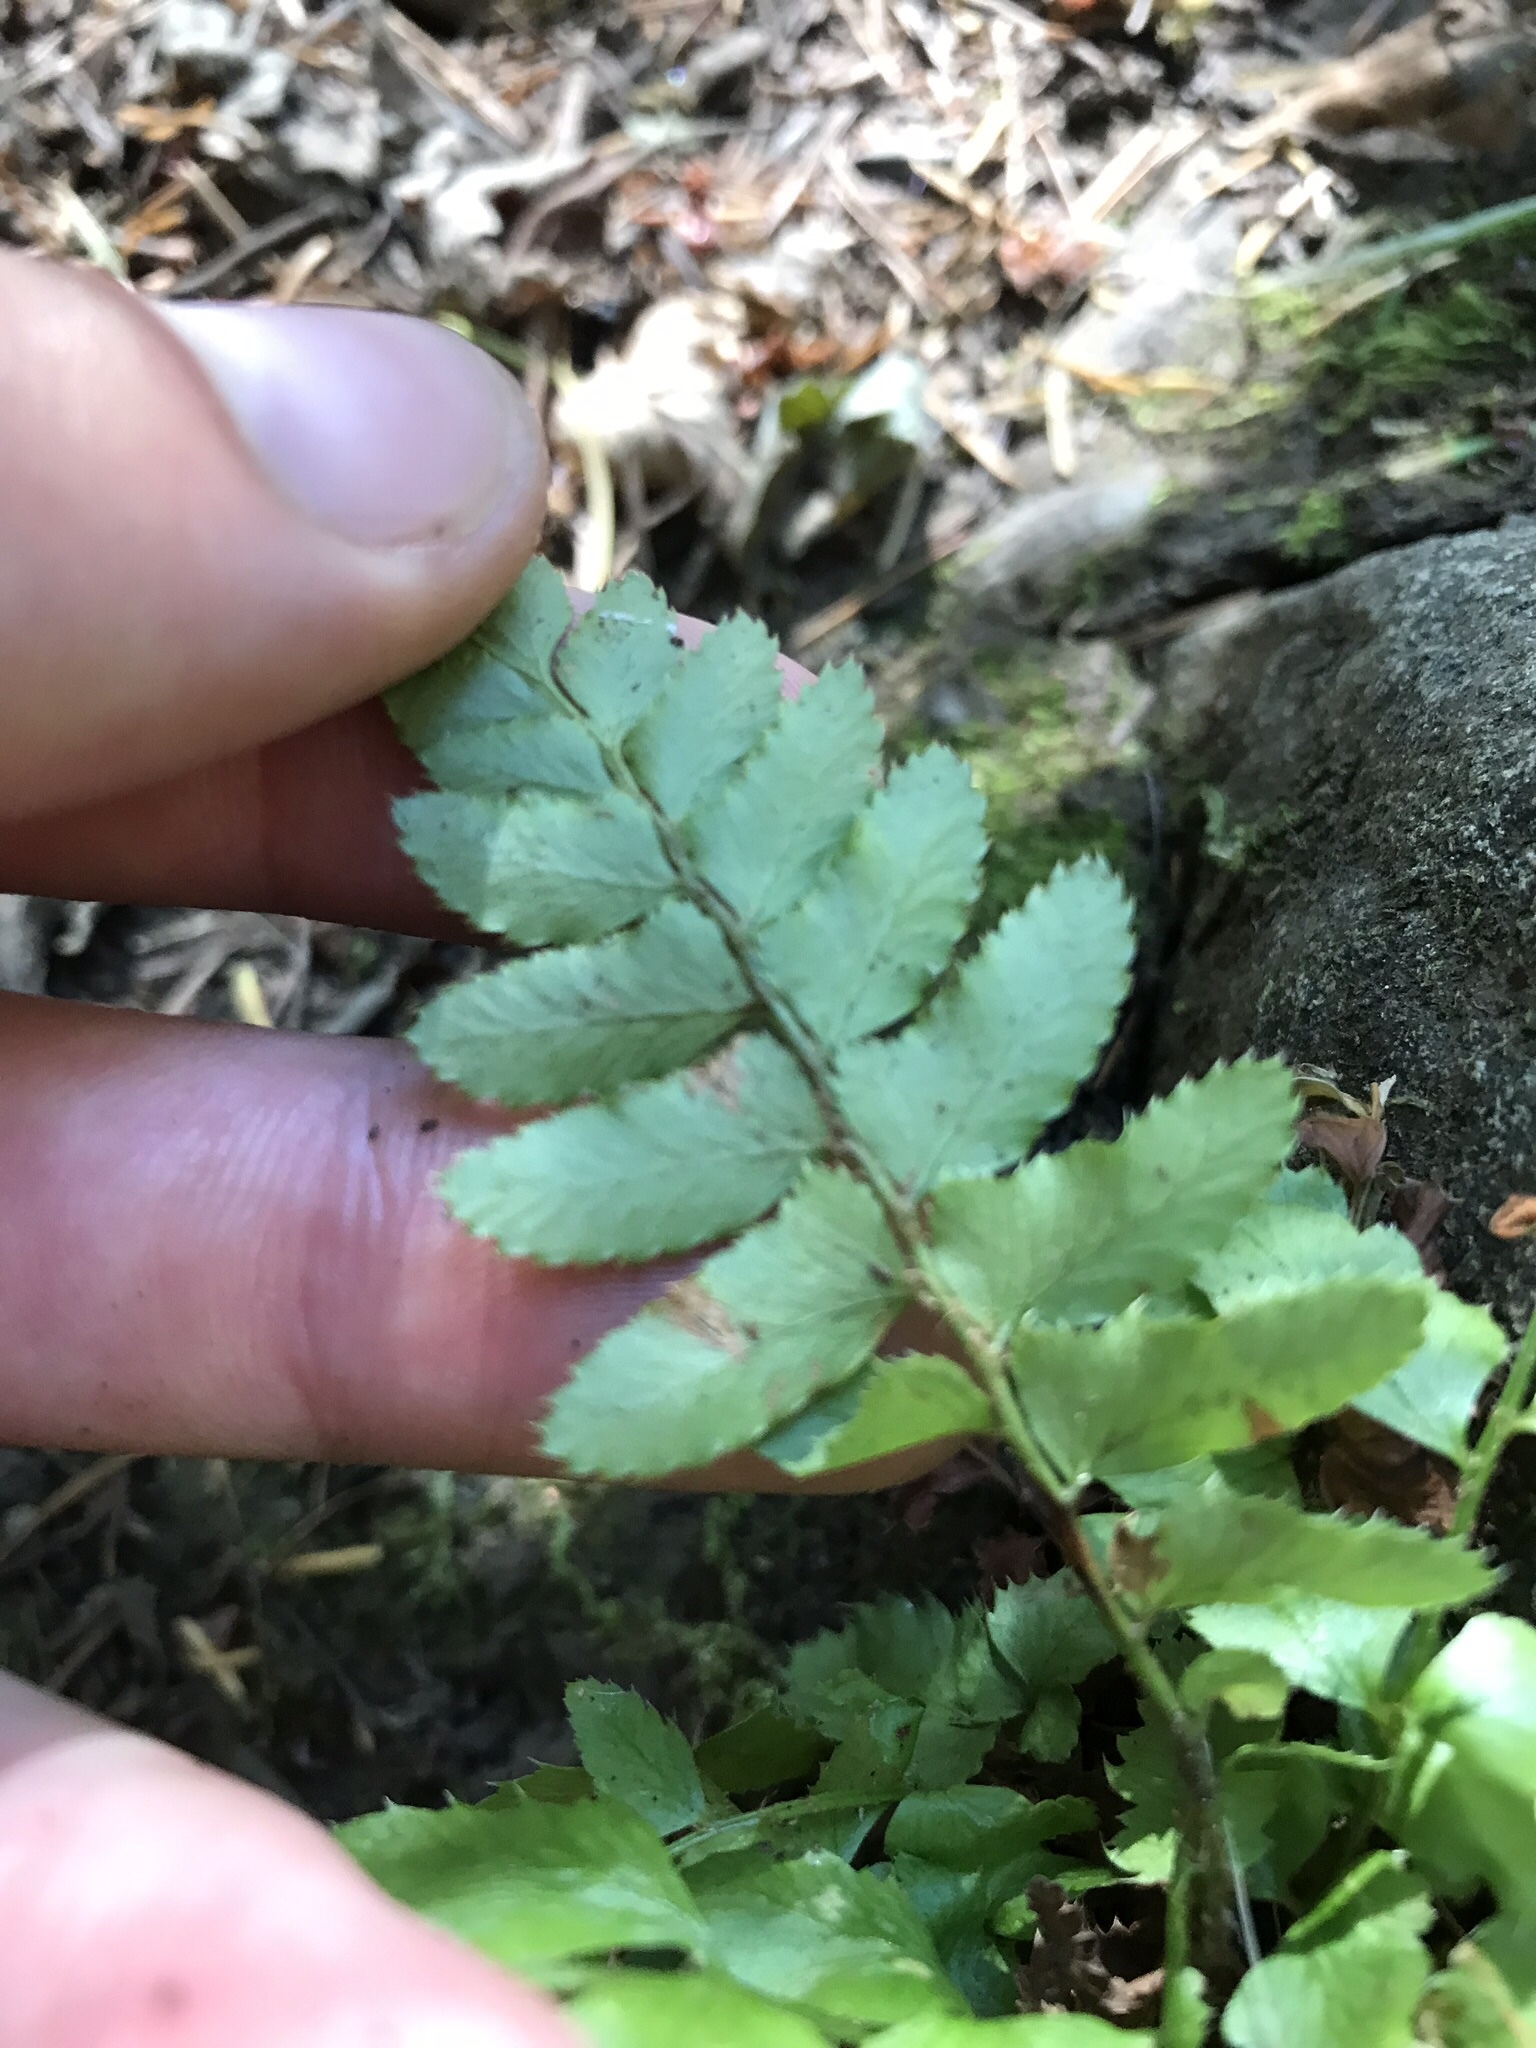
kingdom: Plantae
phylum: Tracheophyta
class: Polypodiopsida
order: Polypodiales
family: Dryopteridaceae
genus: Polystichum
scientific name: Polystichum munitum
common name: Western sword-fern
